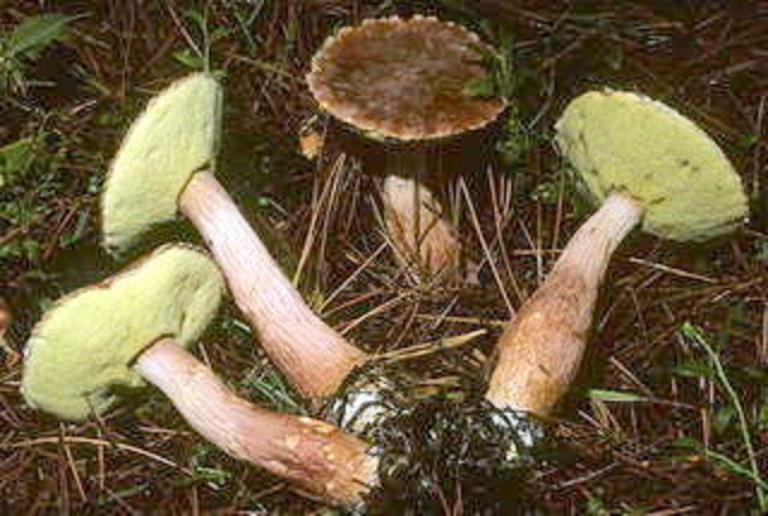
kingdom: Fungi
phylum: Basidiomycota
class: Agaricomycetes
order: Boletales
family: Boletaceae
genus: Aureoboletus
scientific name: Aureoboletus projectellus
